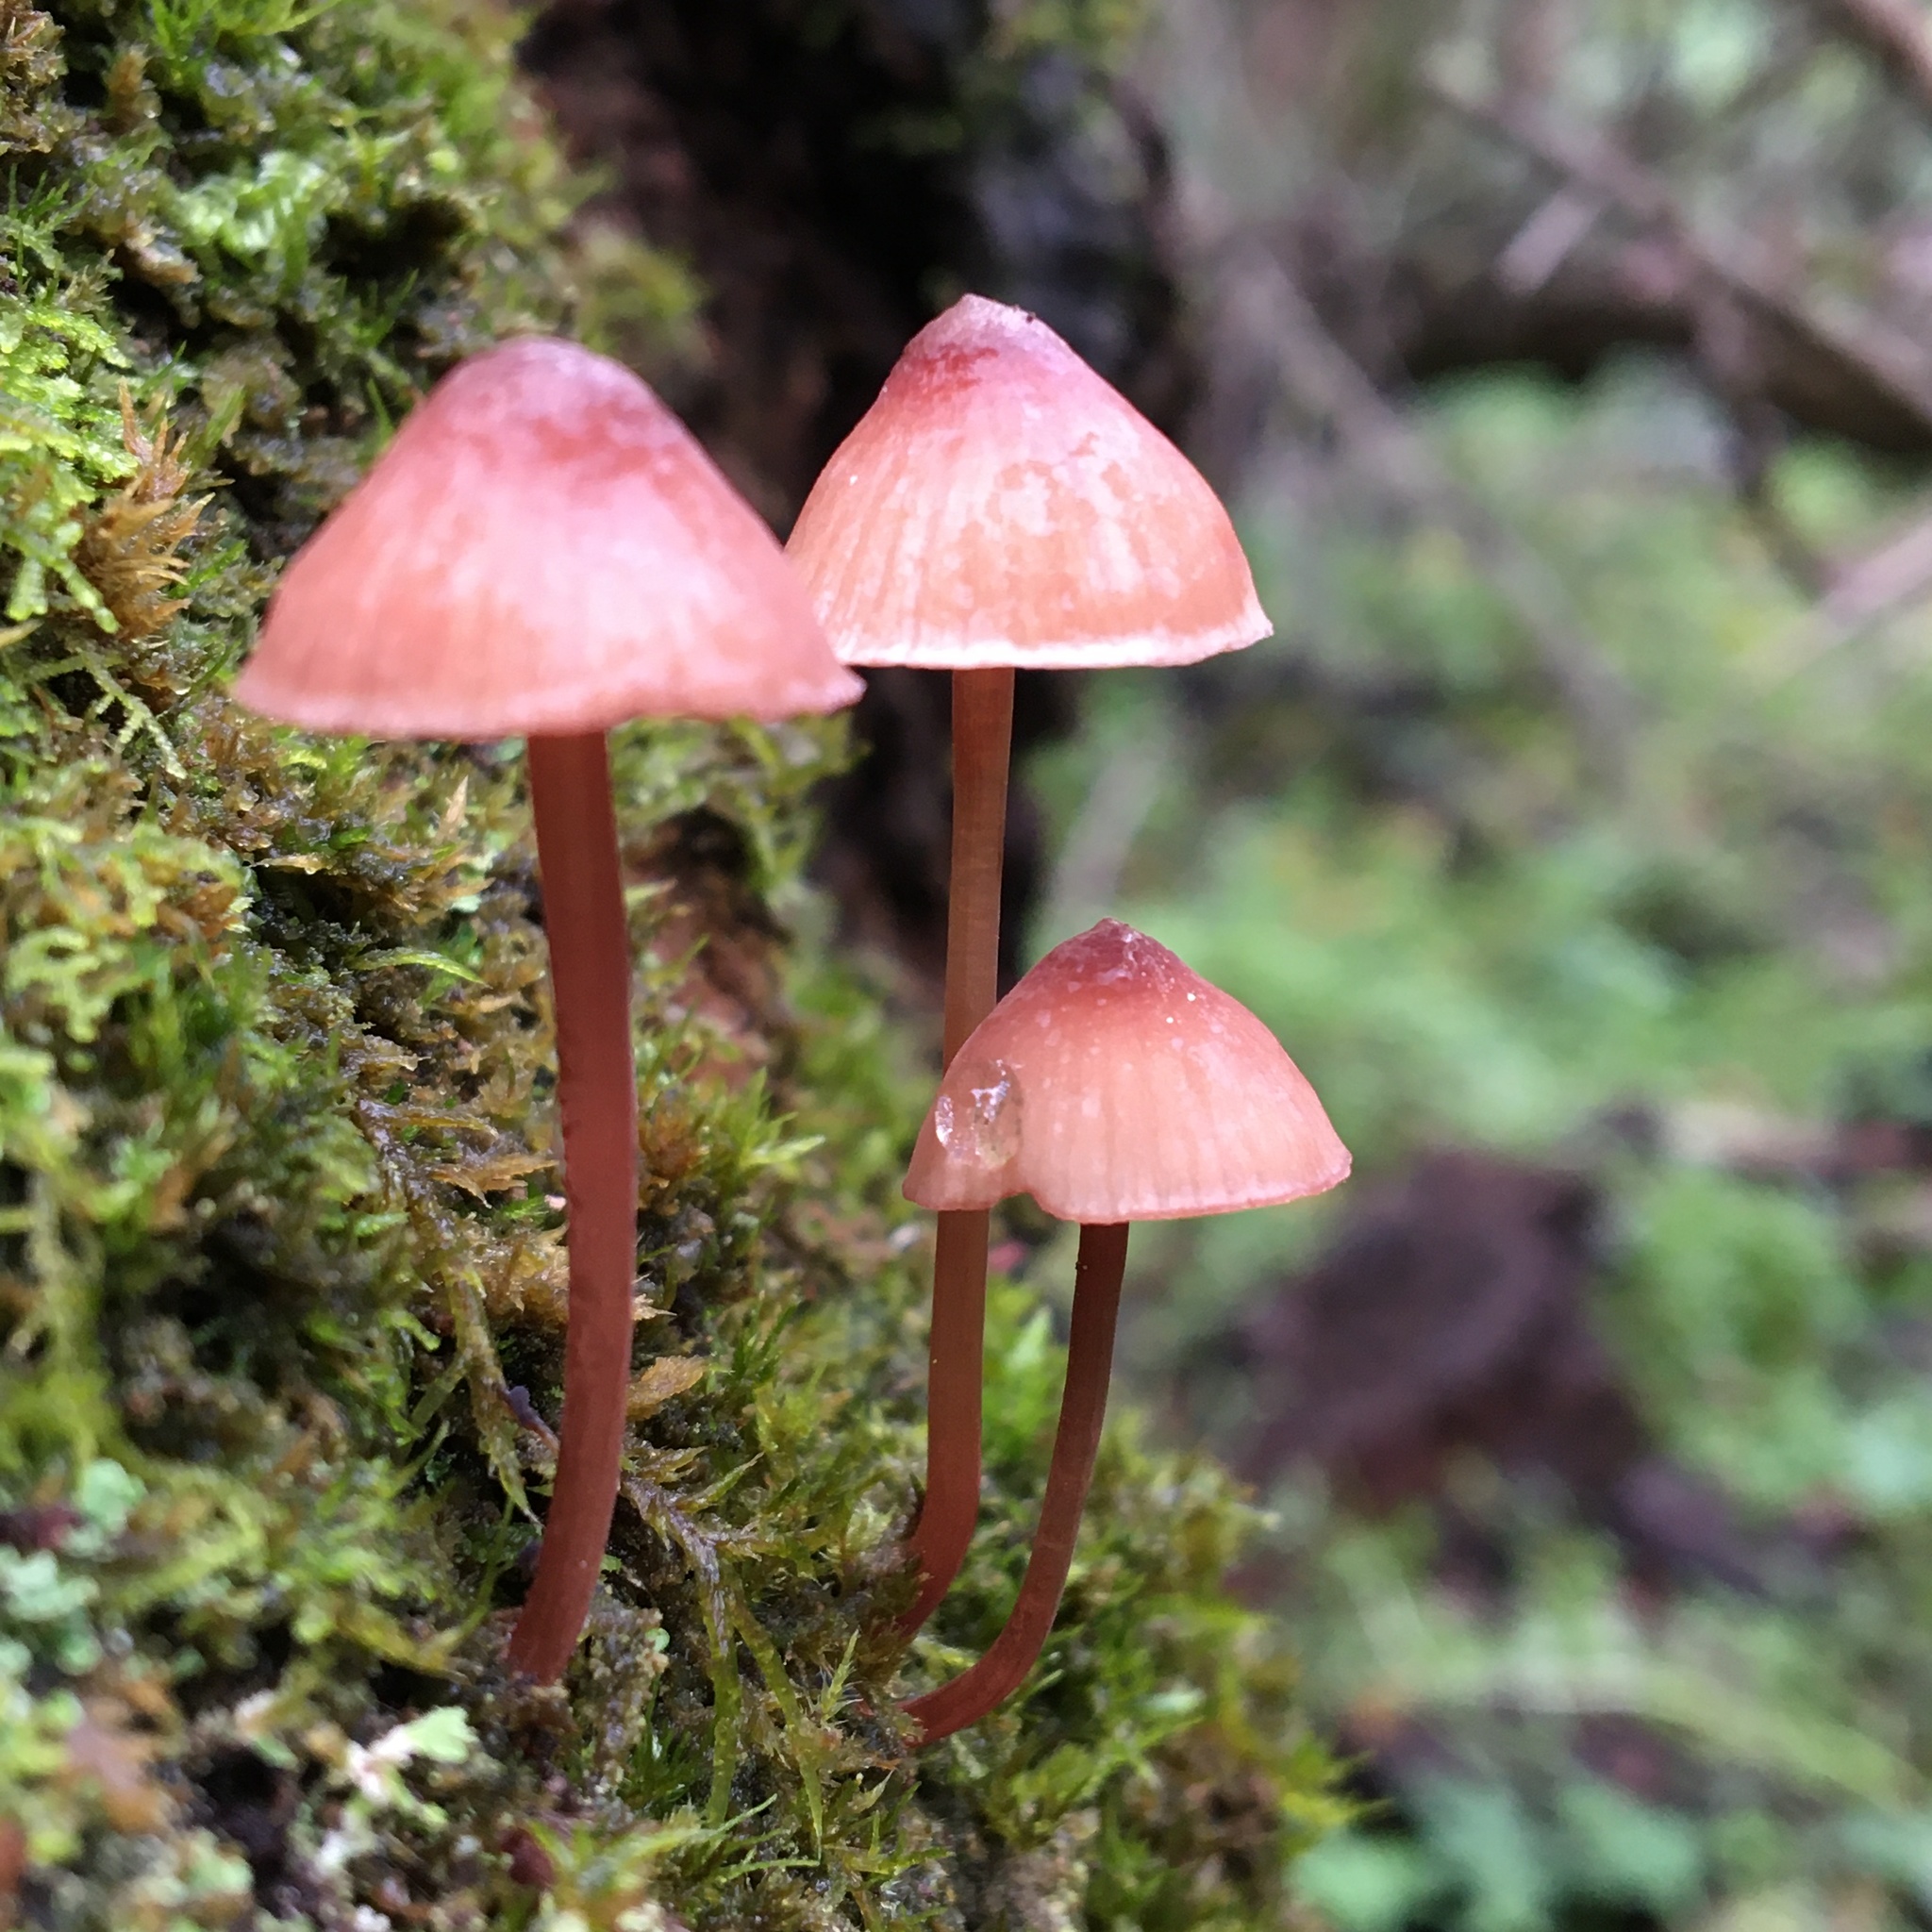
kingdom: Fungi
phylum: Basidiomycota
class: Agaricomycetes
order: Agaricales
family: Mycenaceae
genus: Mycena
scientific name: Mycena kuurkacea
